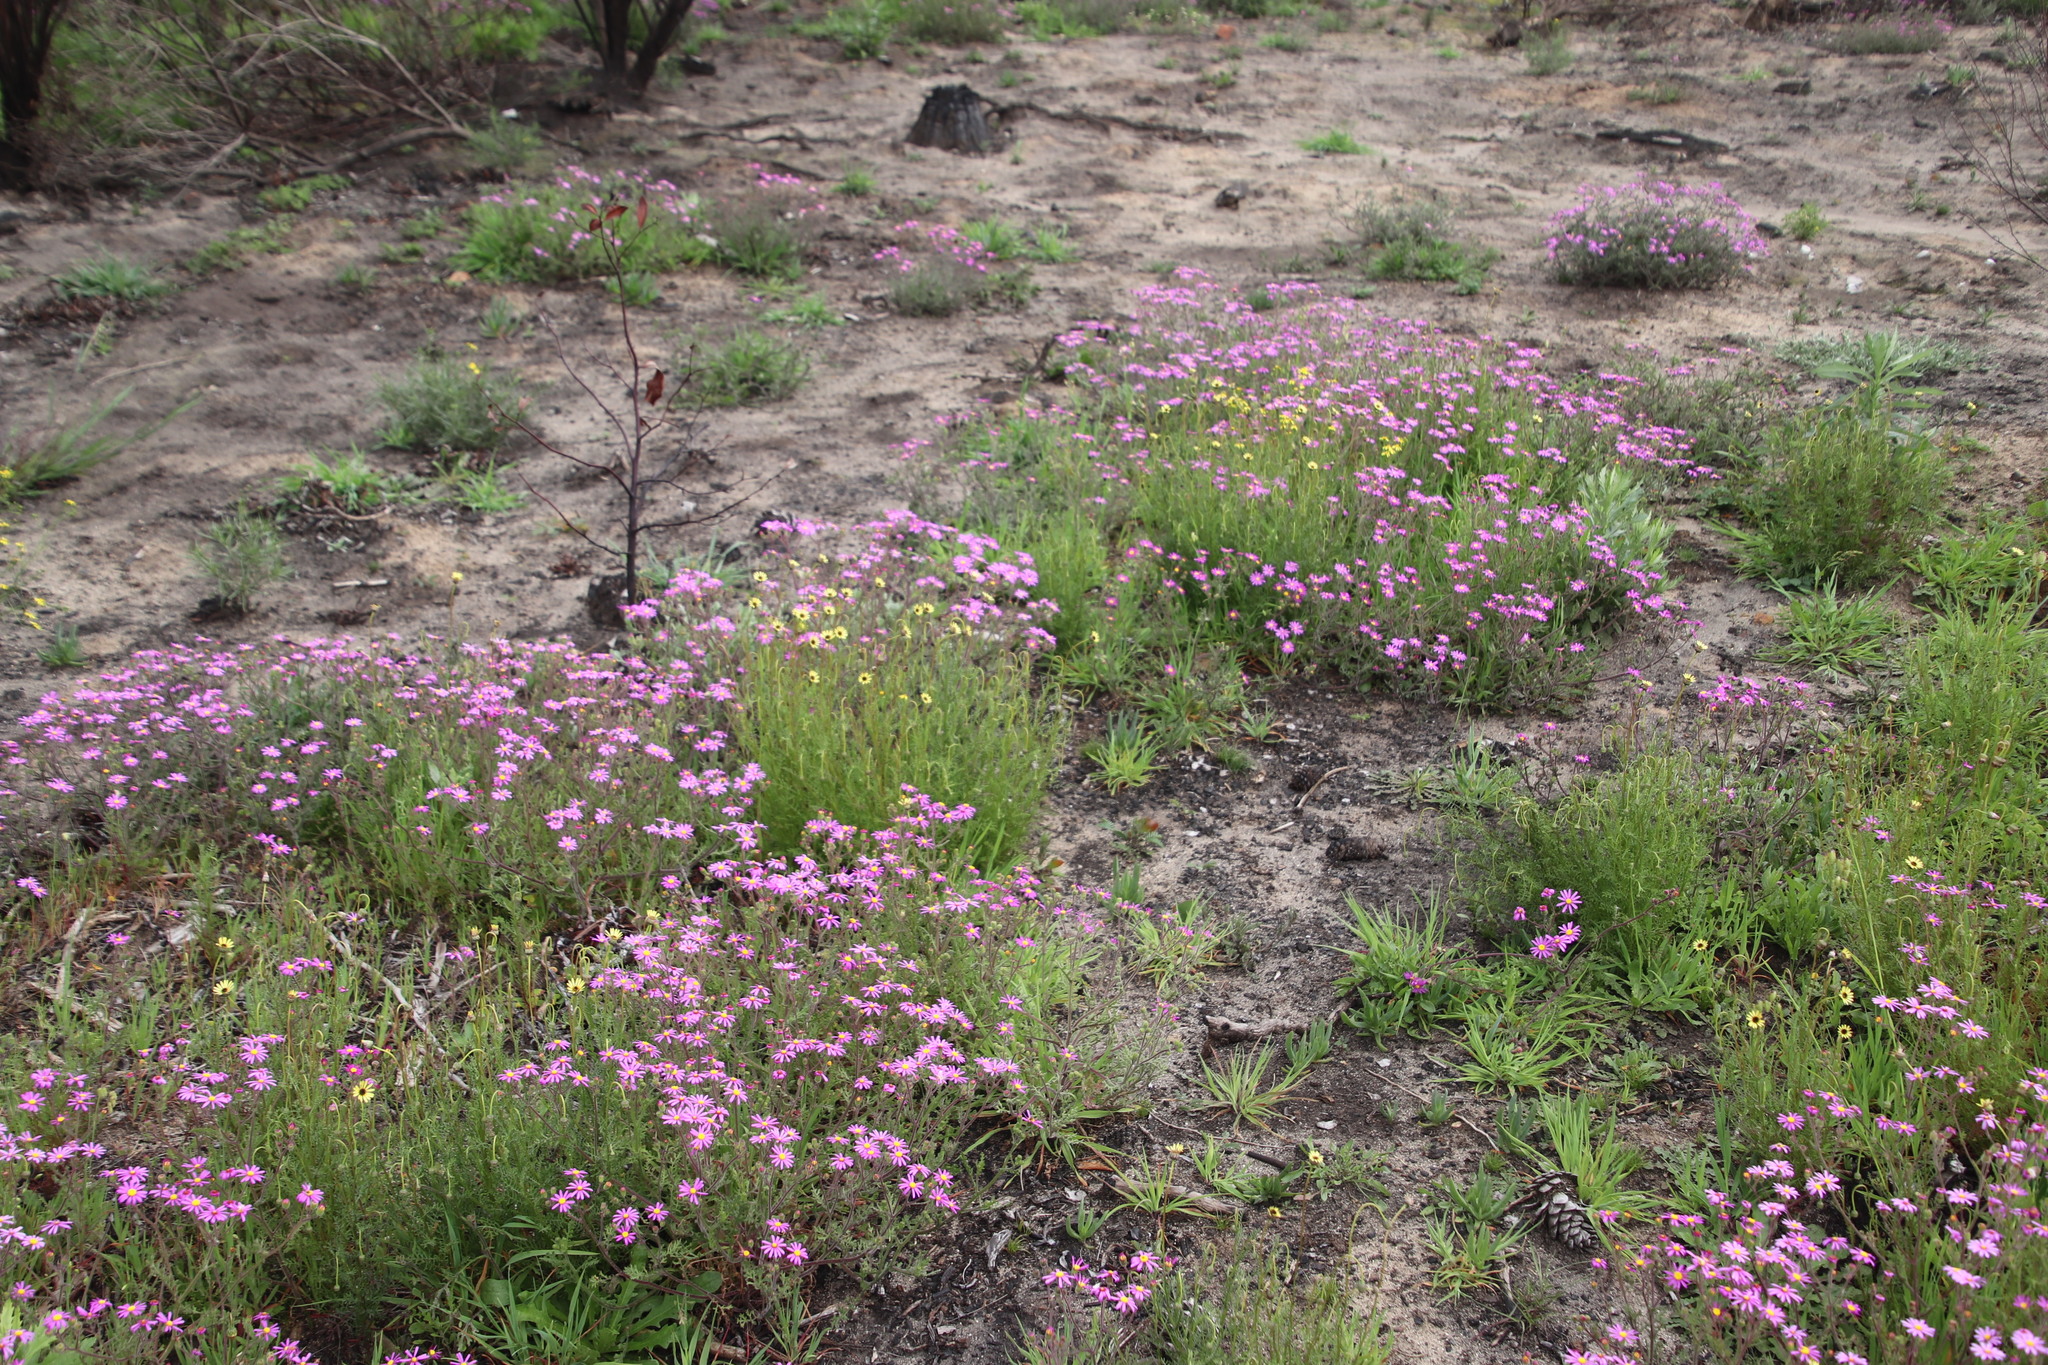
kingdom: Plantae
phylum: Tracheophyta
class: Magnoliopsida
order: Asterales
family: Asteraceae
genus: Senecio
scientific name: Senecio arenarius
